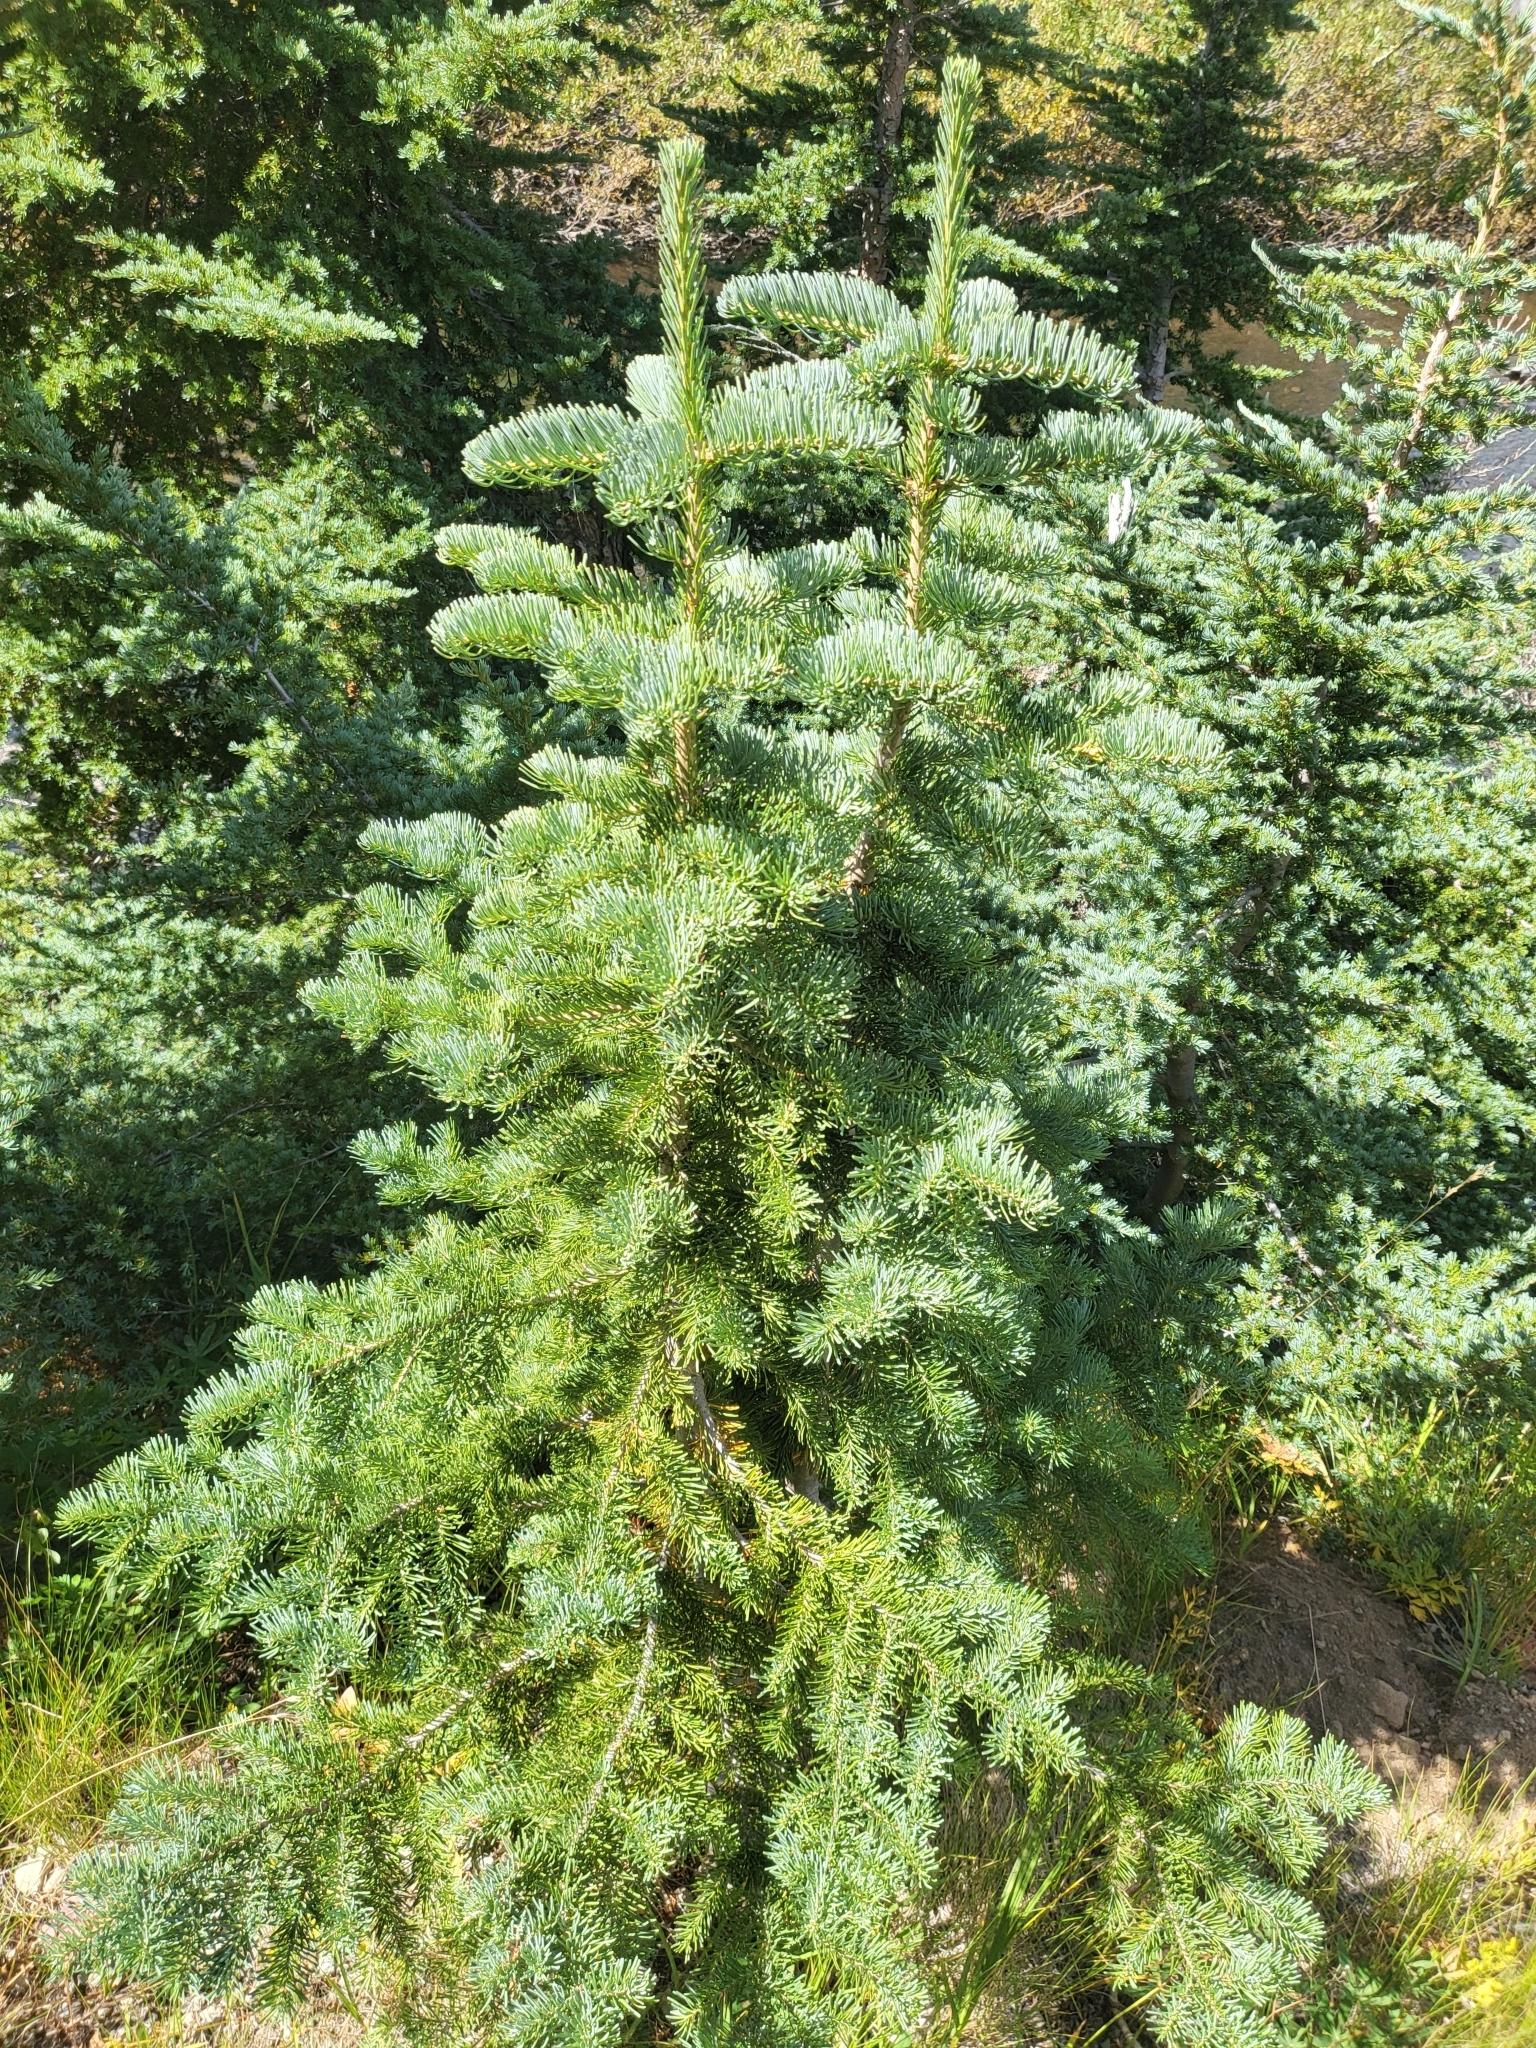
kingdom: Plantae
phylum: Tracheophyta
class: Pinopsida
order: Pinales
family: Pinaceae
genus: Abies
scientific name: Abies lasiocarpa
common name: Subalpine fir
